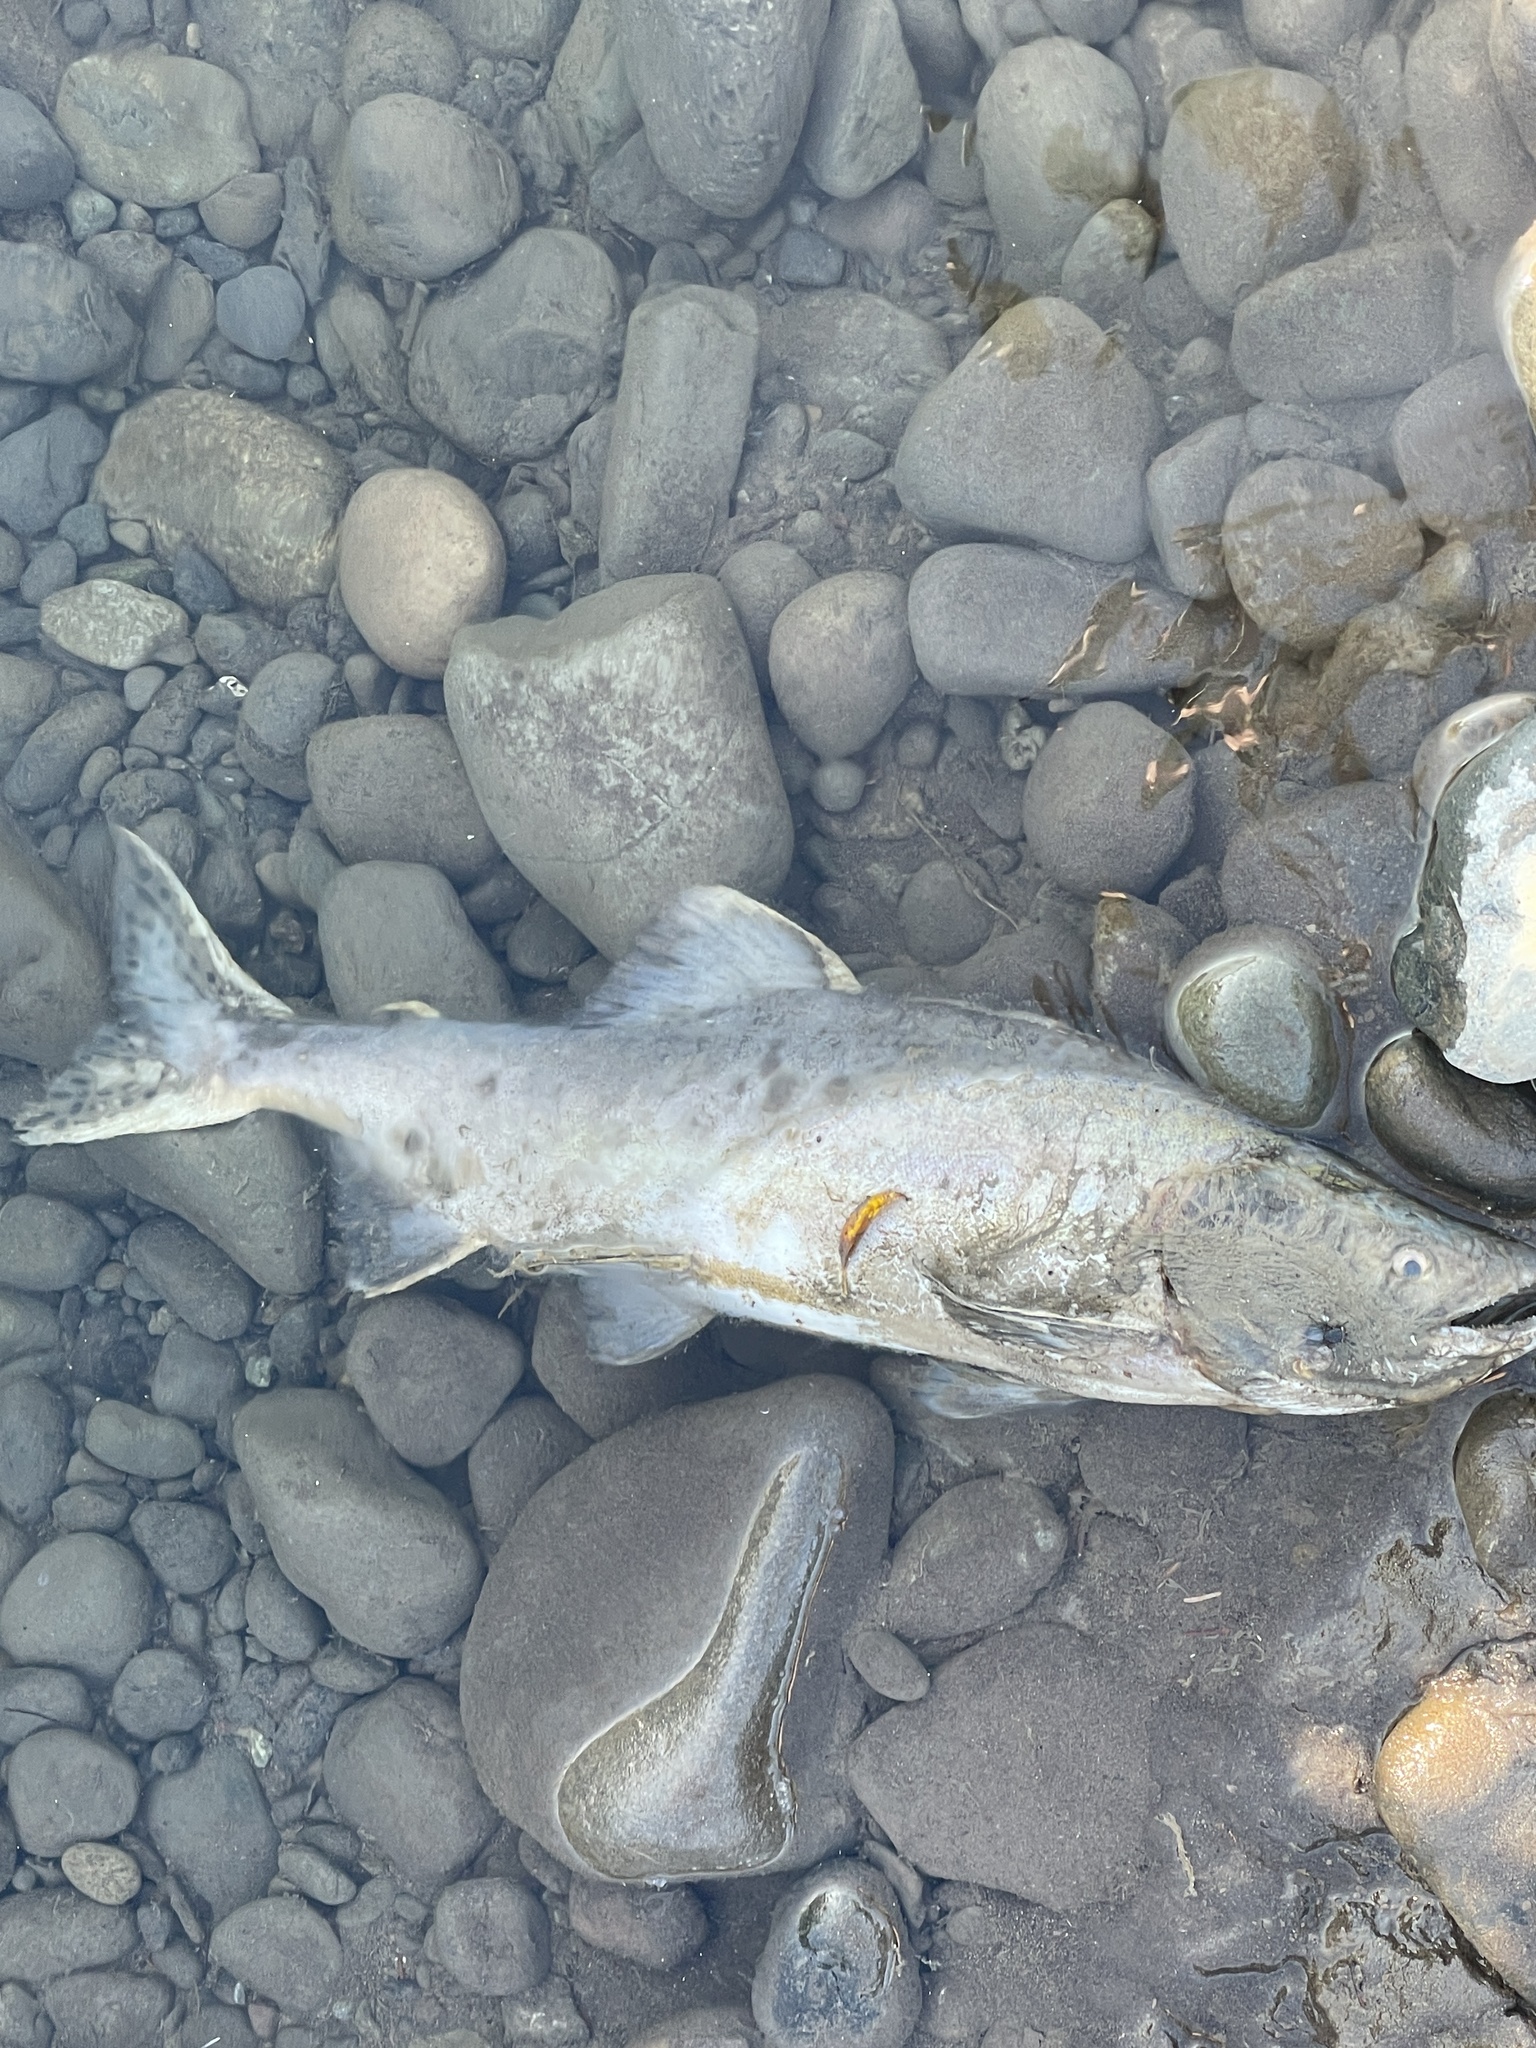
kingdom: Animalia
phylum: Chordata
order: Salmoniformes
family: Salmonidae
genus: Oncorhynchus
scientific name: Oncorhynchus gorbuscha
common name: Humpback salmon
